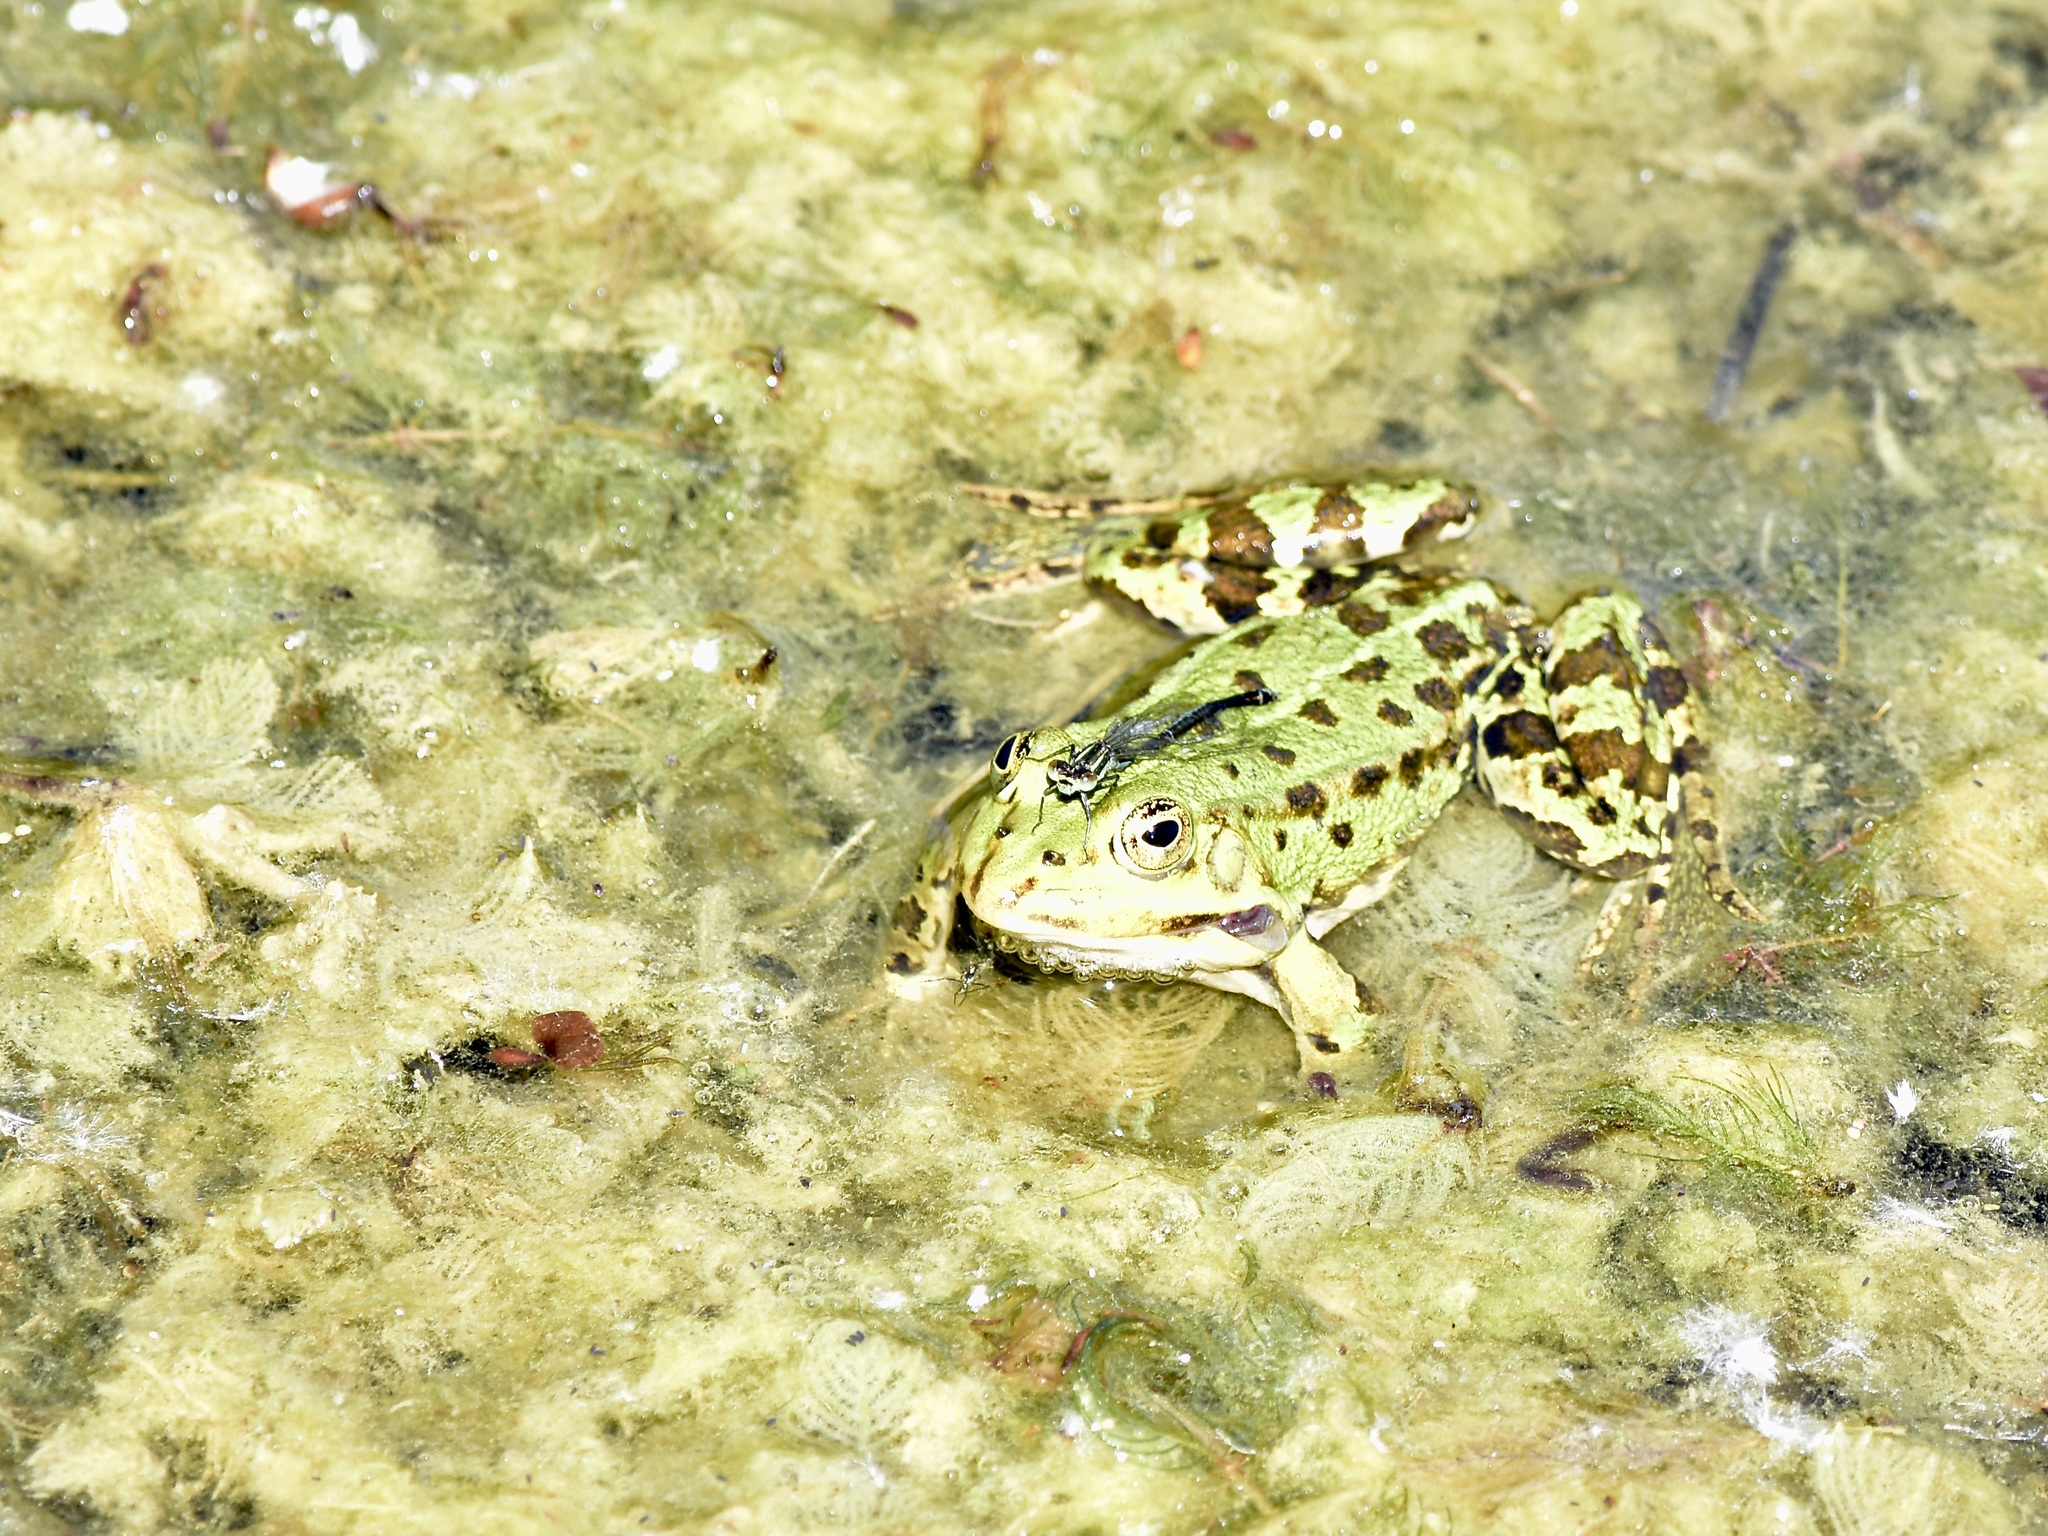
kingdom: Animalia
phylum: Chordata
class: Amphibia
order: Anura
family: Ranidae
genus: Pelophylax
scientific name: Pelophylax
